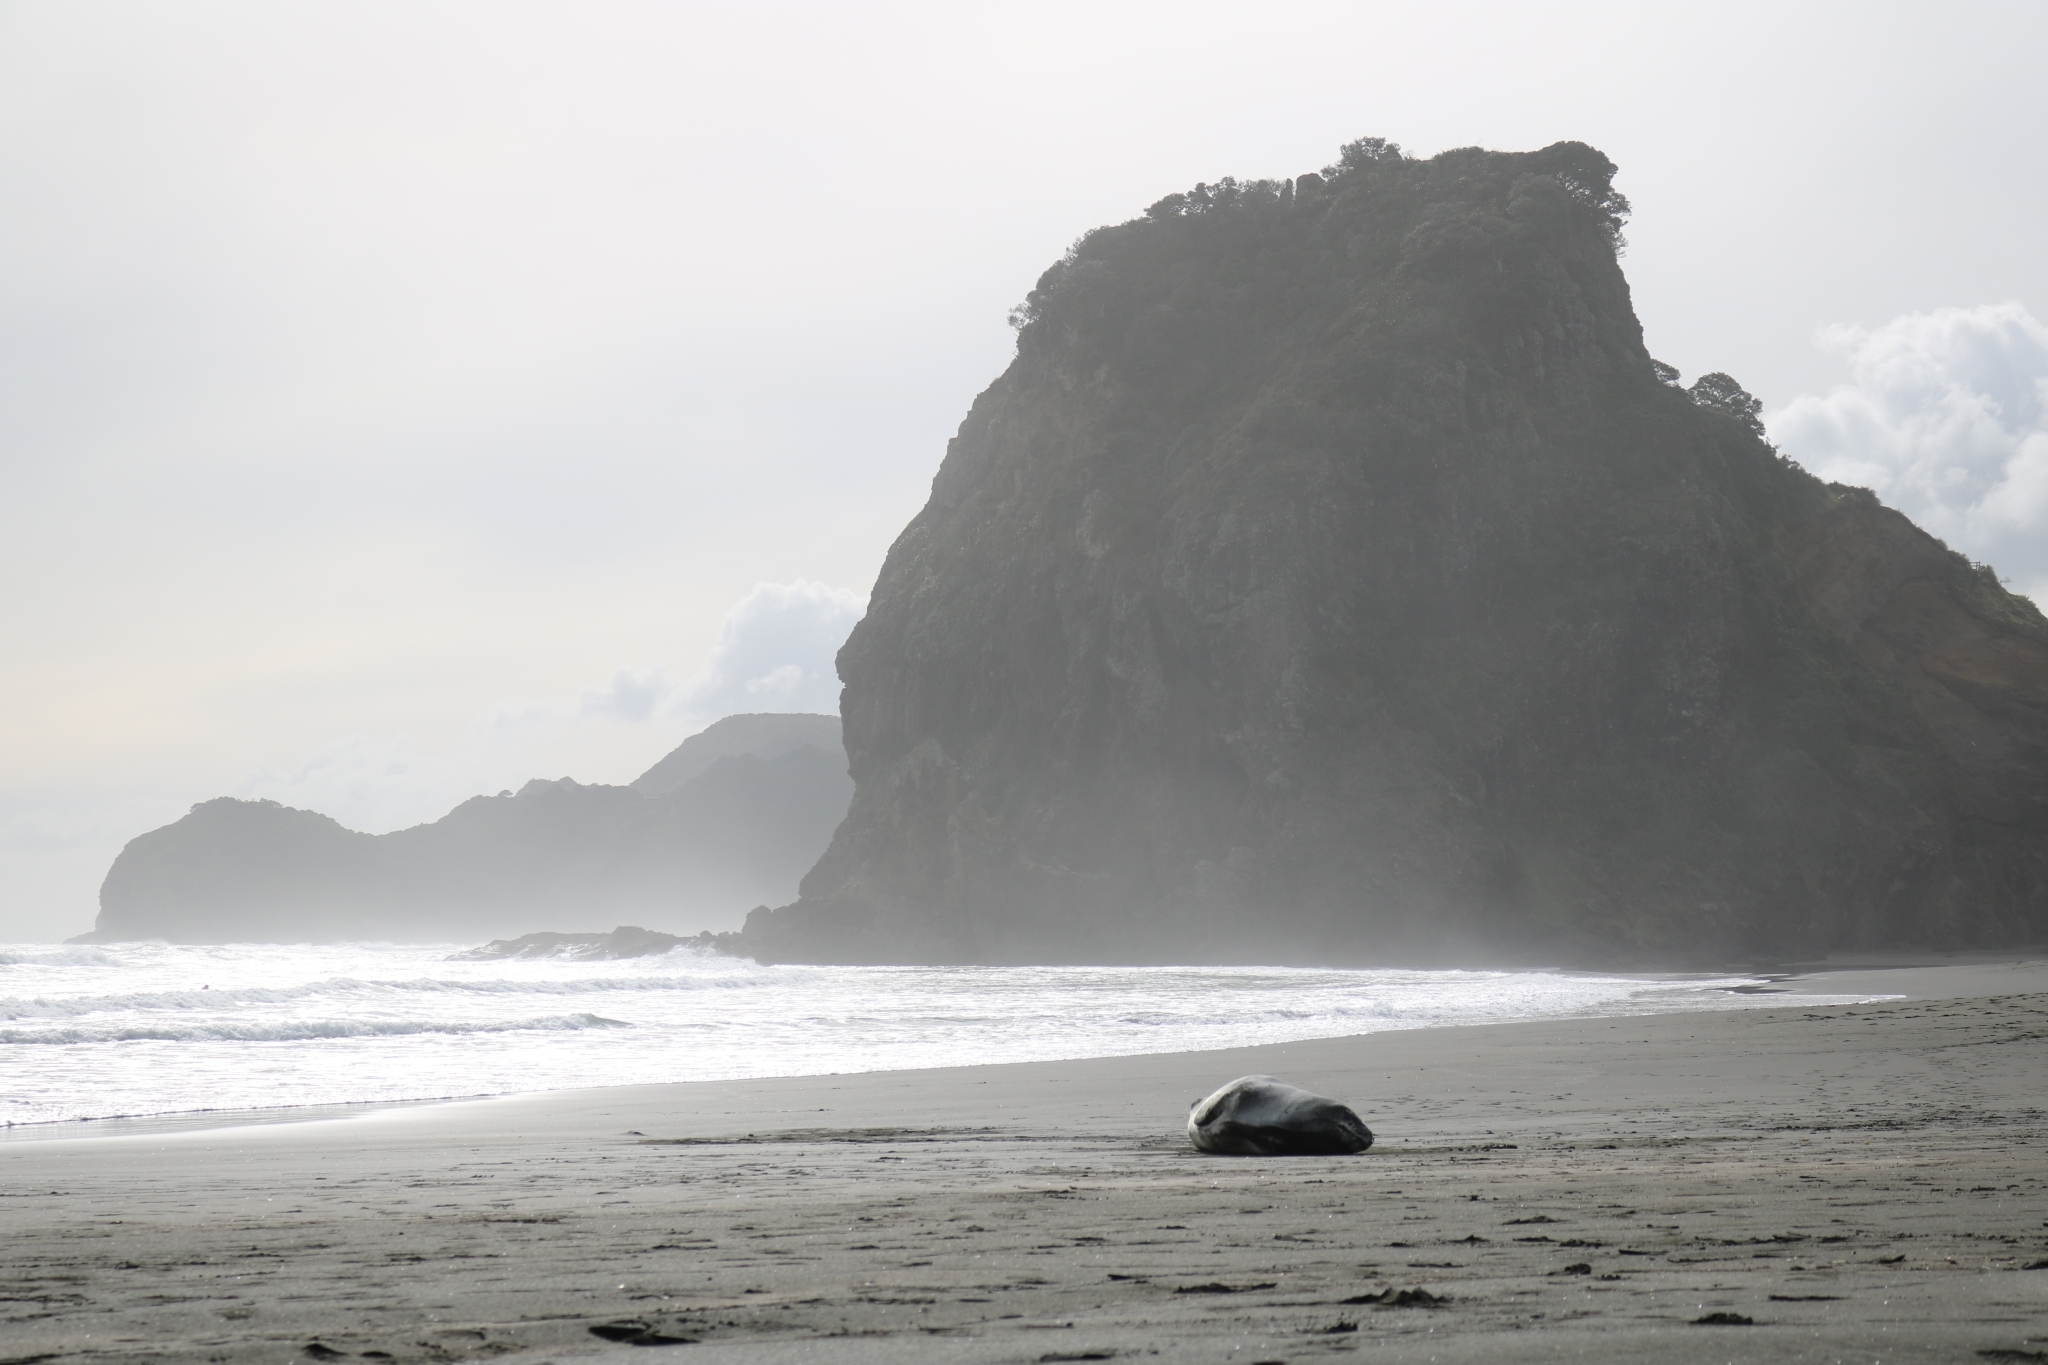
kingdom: Animalia
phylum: Chordata
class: Mammalia
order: Carnivora
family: Phocidae
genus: Hydrurga
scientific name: Hydrurga leptonyx
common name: Leopard seal
